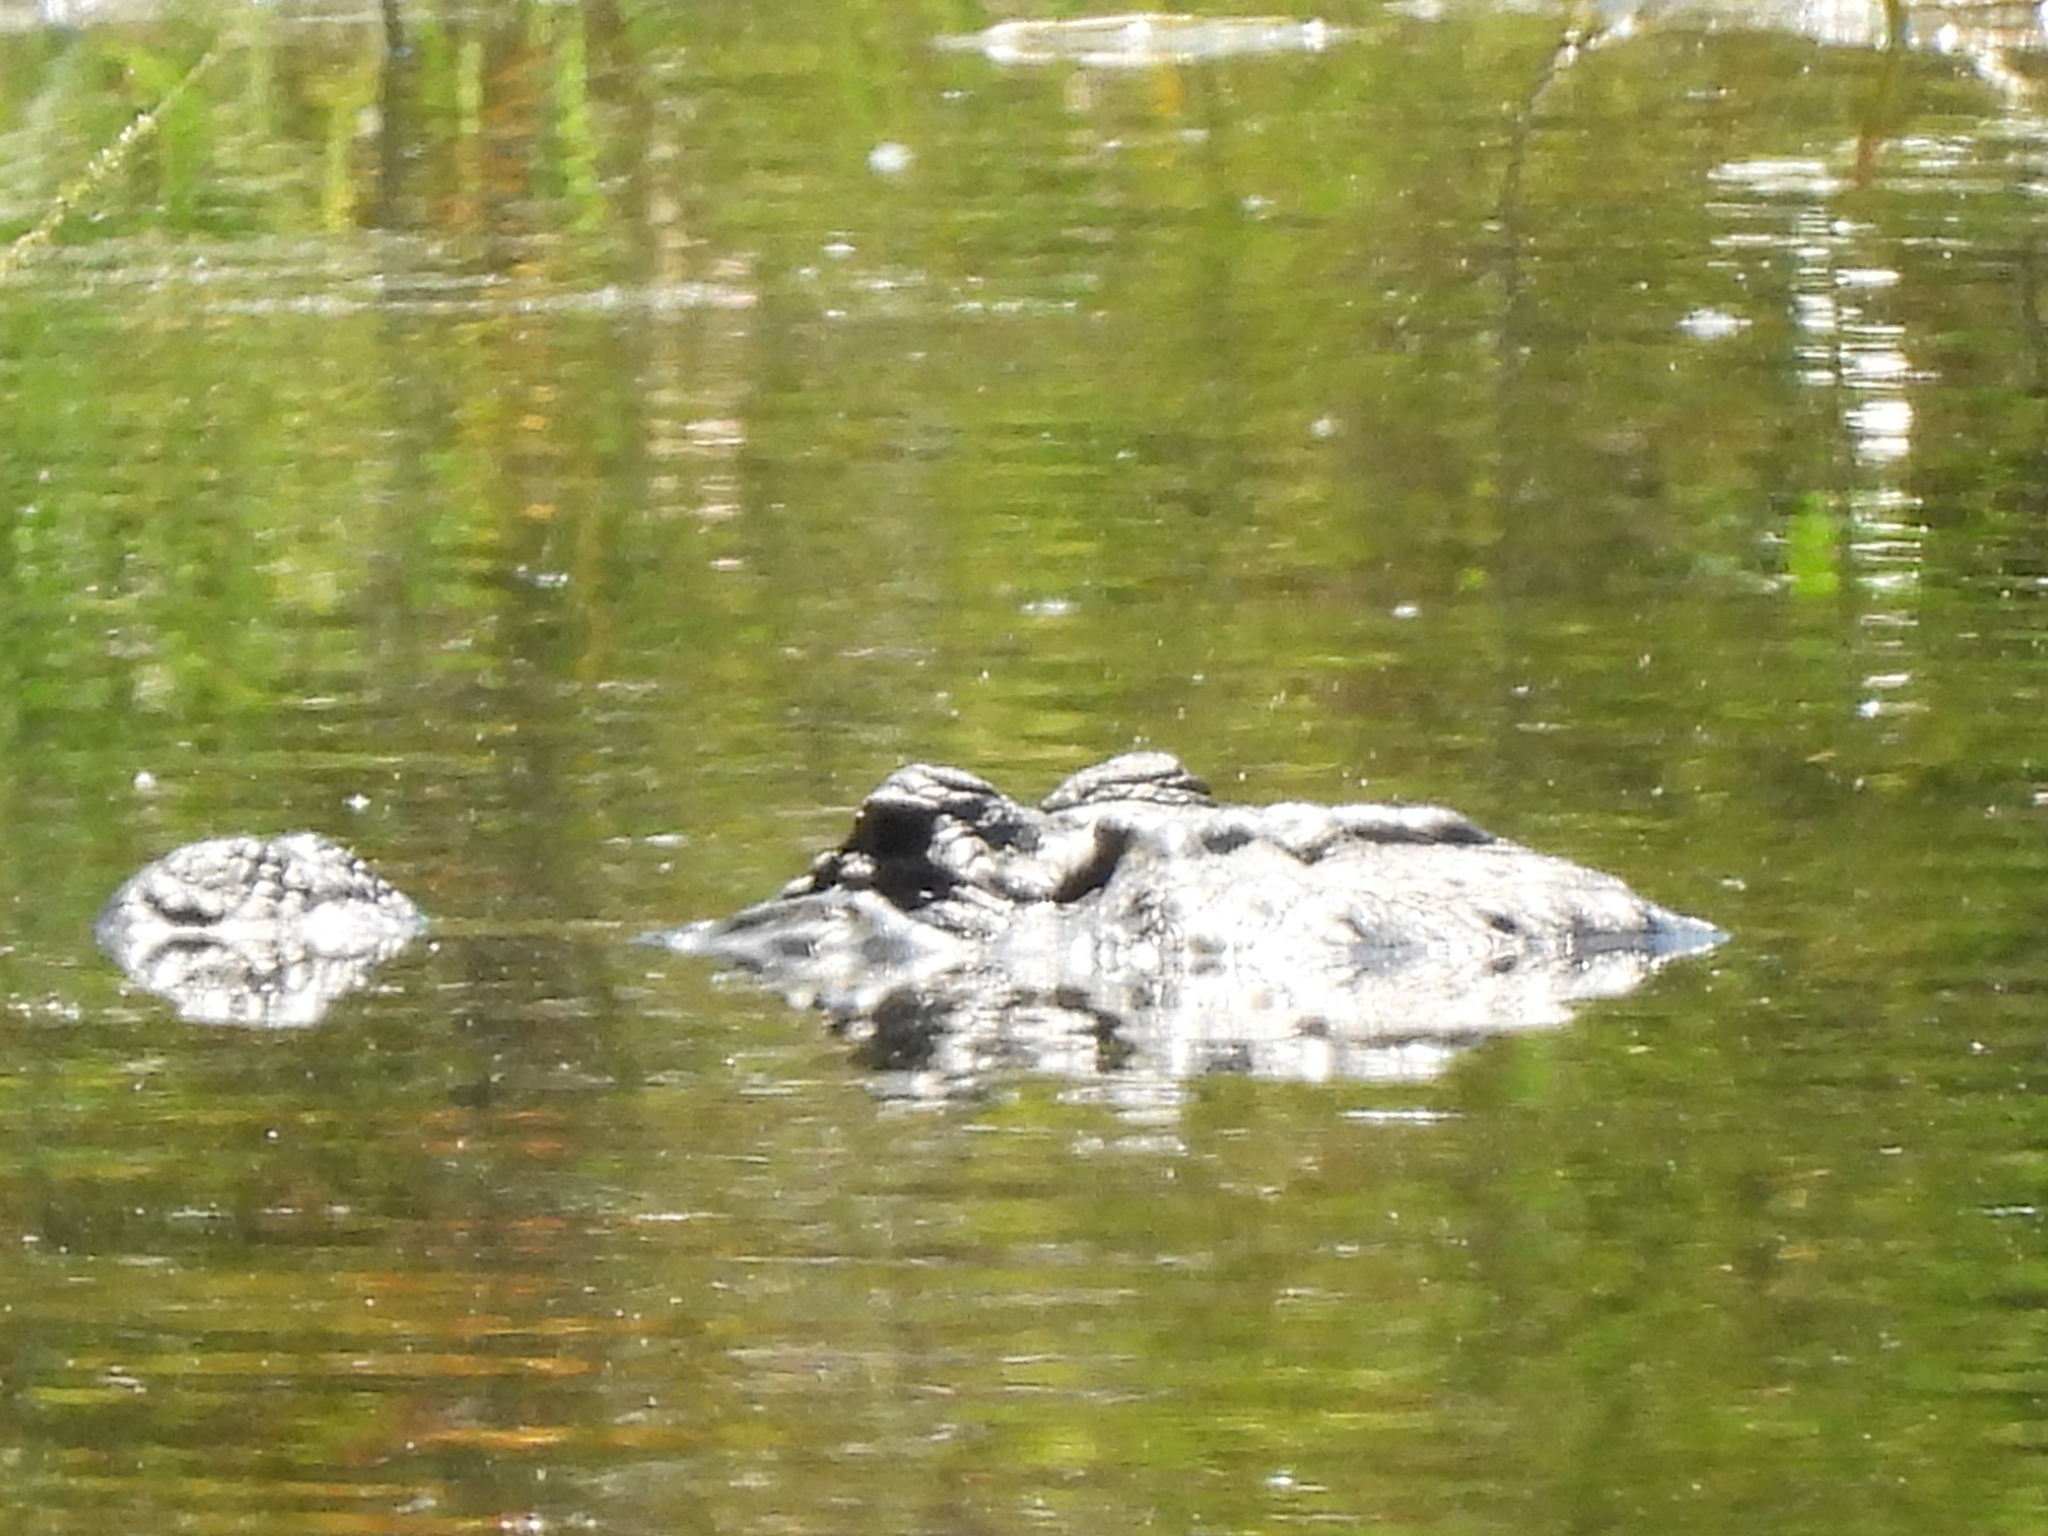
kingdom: Animalia
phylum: Chordata
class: Crocodylia
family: Alligatoridae
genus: Alligator
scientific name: Alligator mississippiensis
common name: American alligator
